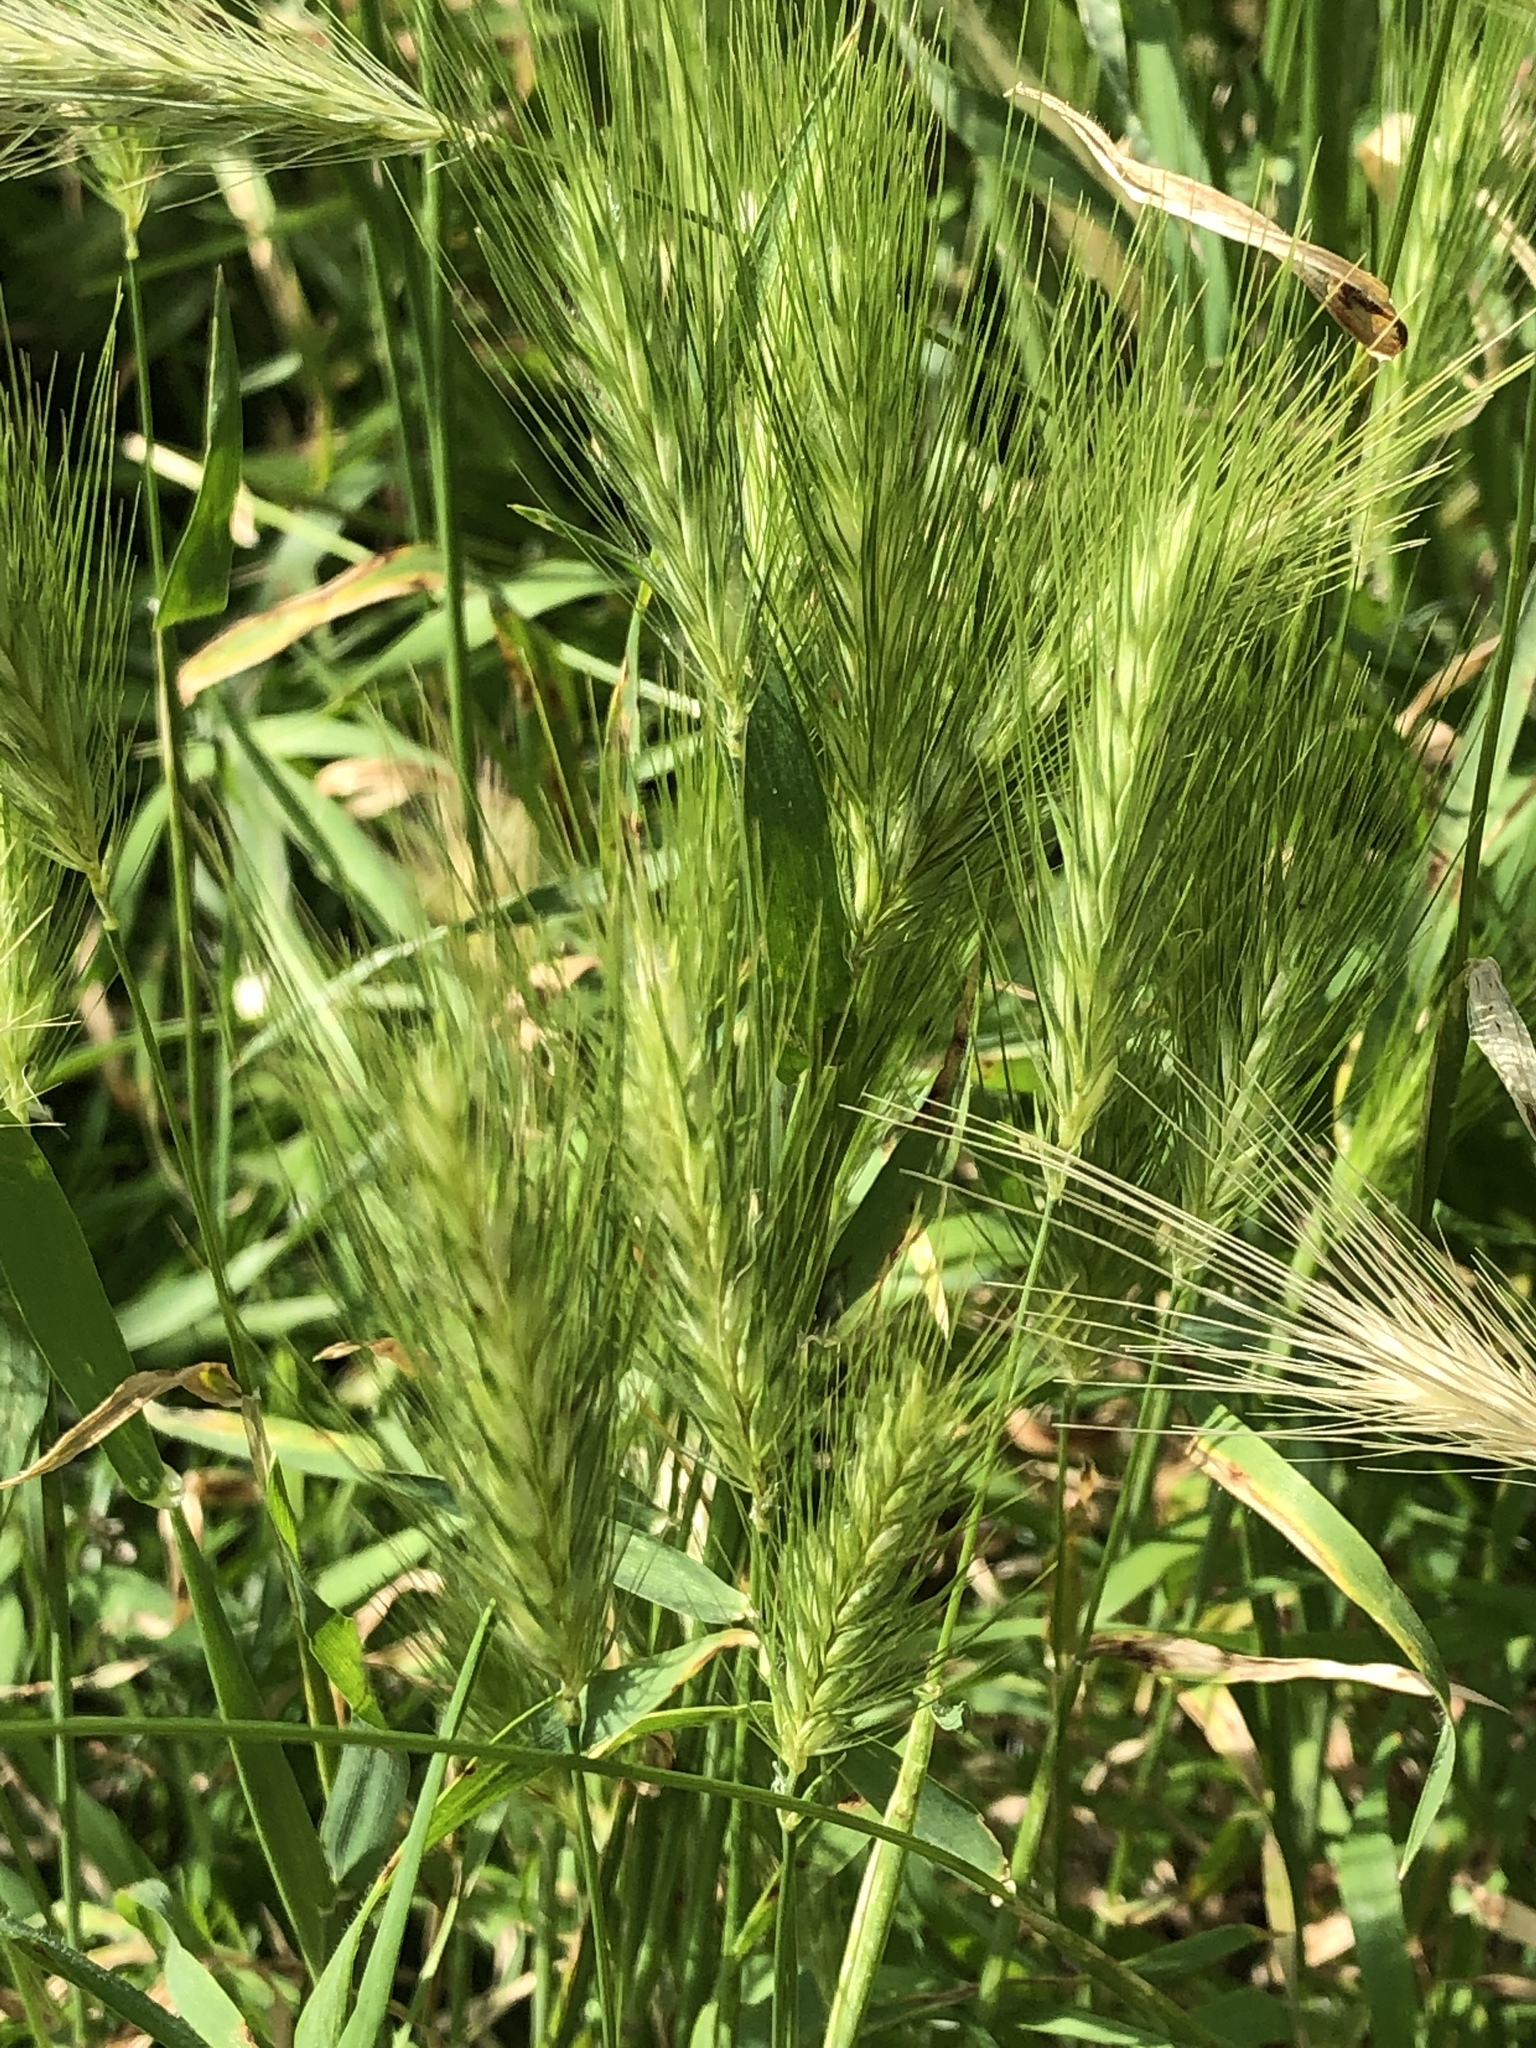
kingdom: Plantae
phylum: Tracheophyta
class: Liliopsida
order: Poales
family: Poaceae
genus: Hordeum
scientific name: Hordeum murinum
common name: Wall barley
